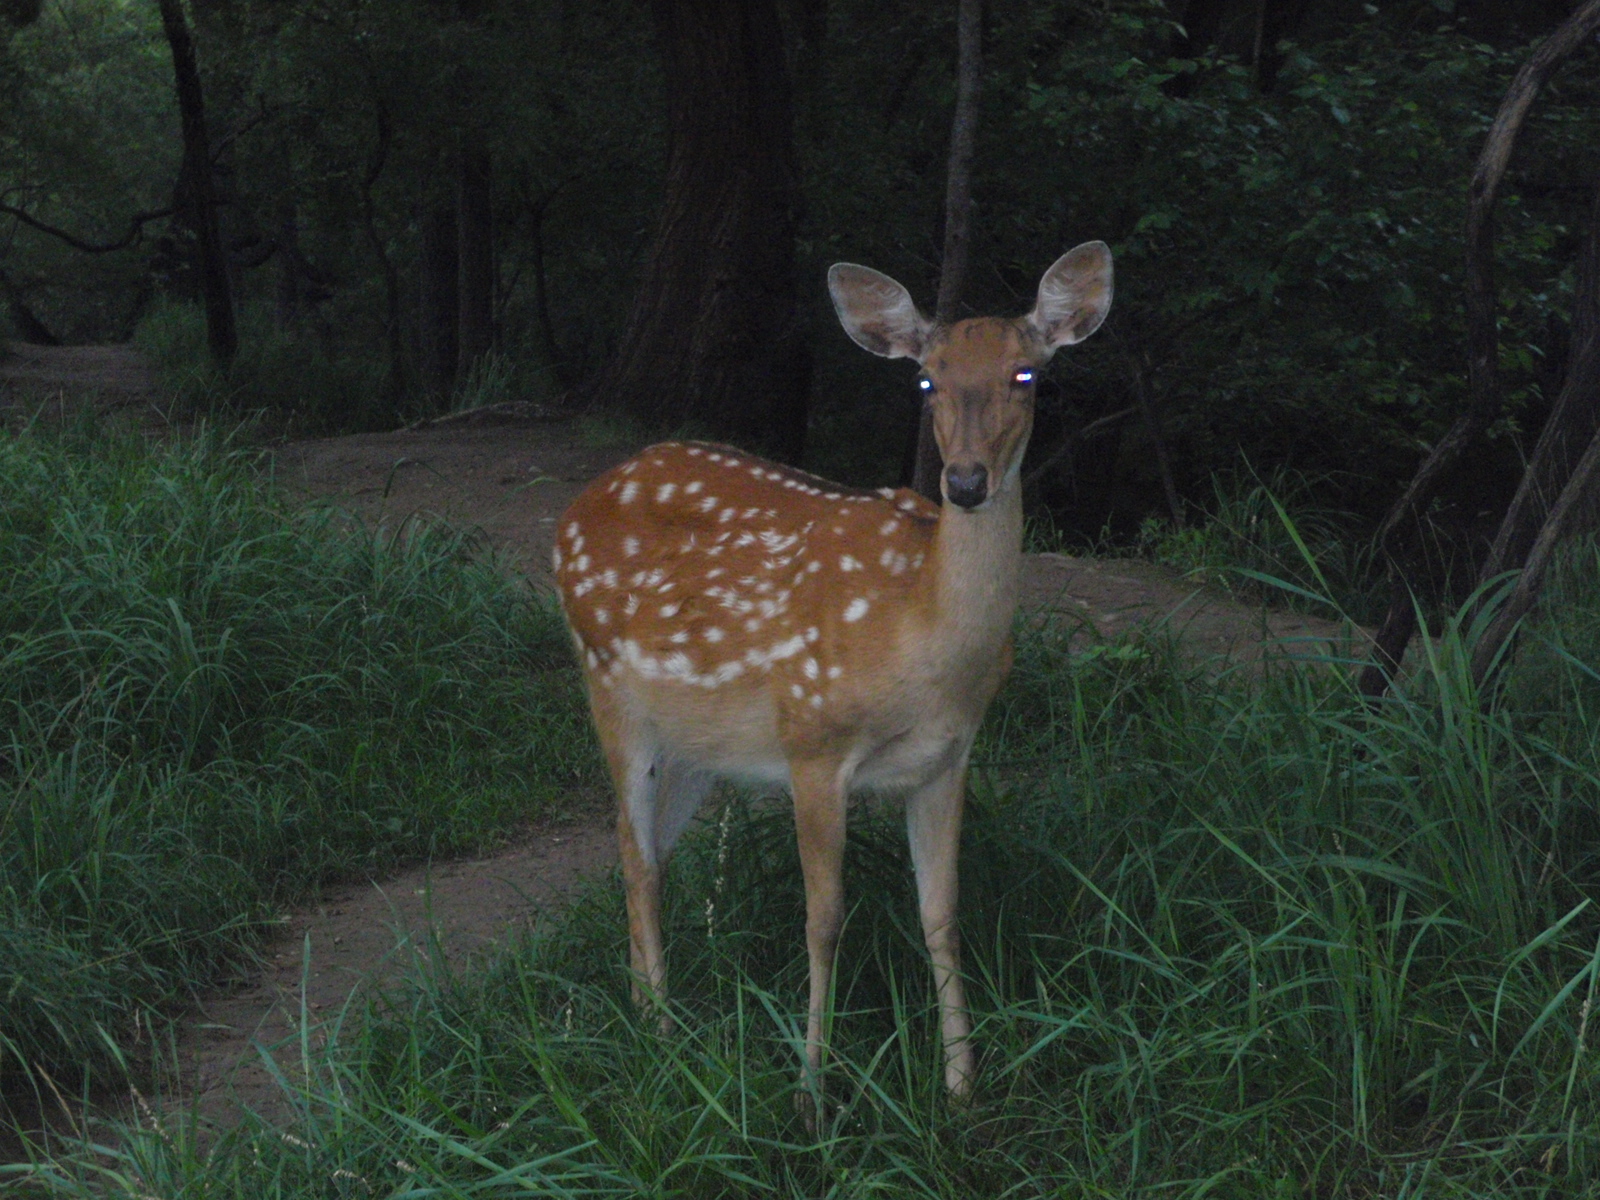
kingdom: Animalia
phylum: Chordata
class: Mammalia
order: Artiodactyla
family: Cervidae
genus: Cervus
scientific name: Cervus nippon
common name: Sika deer
